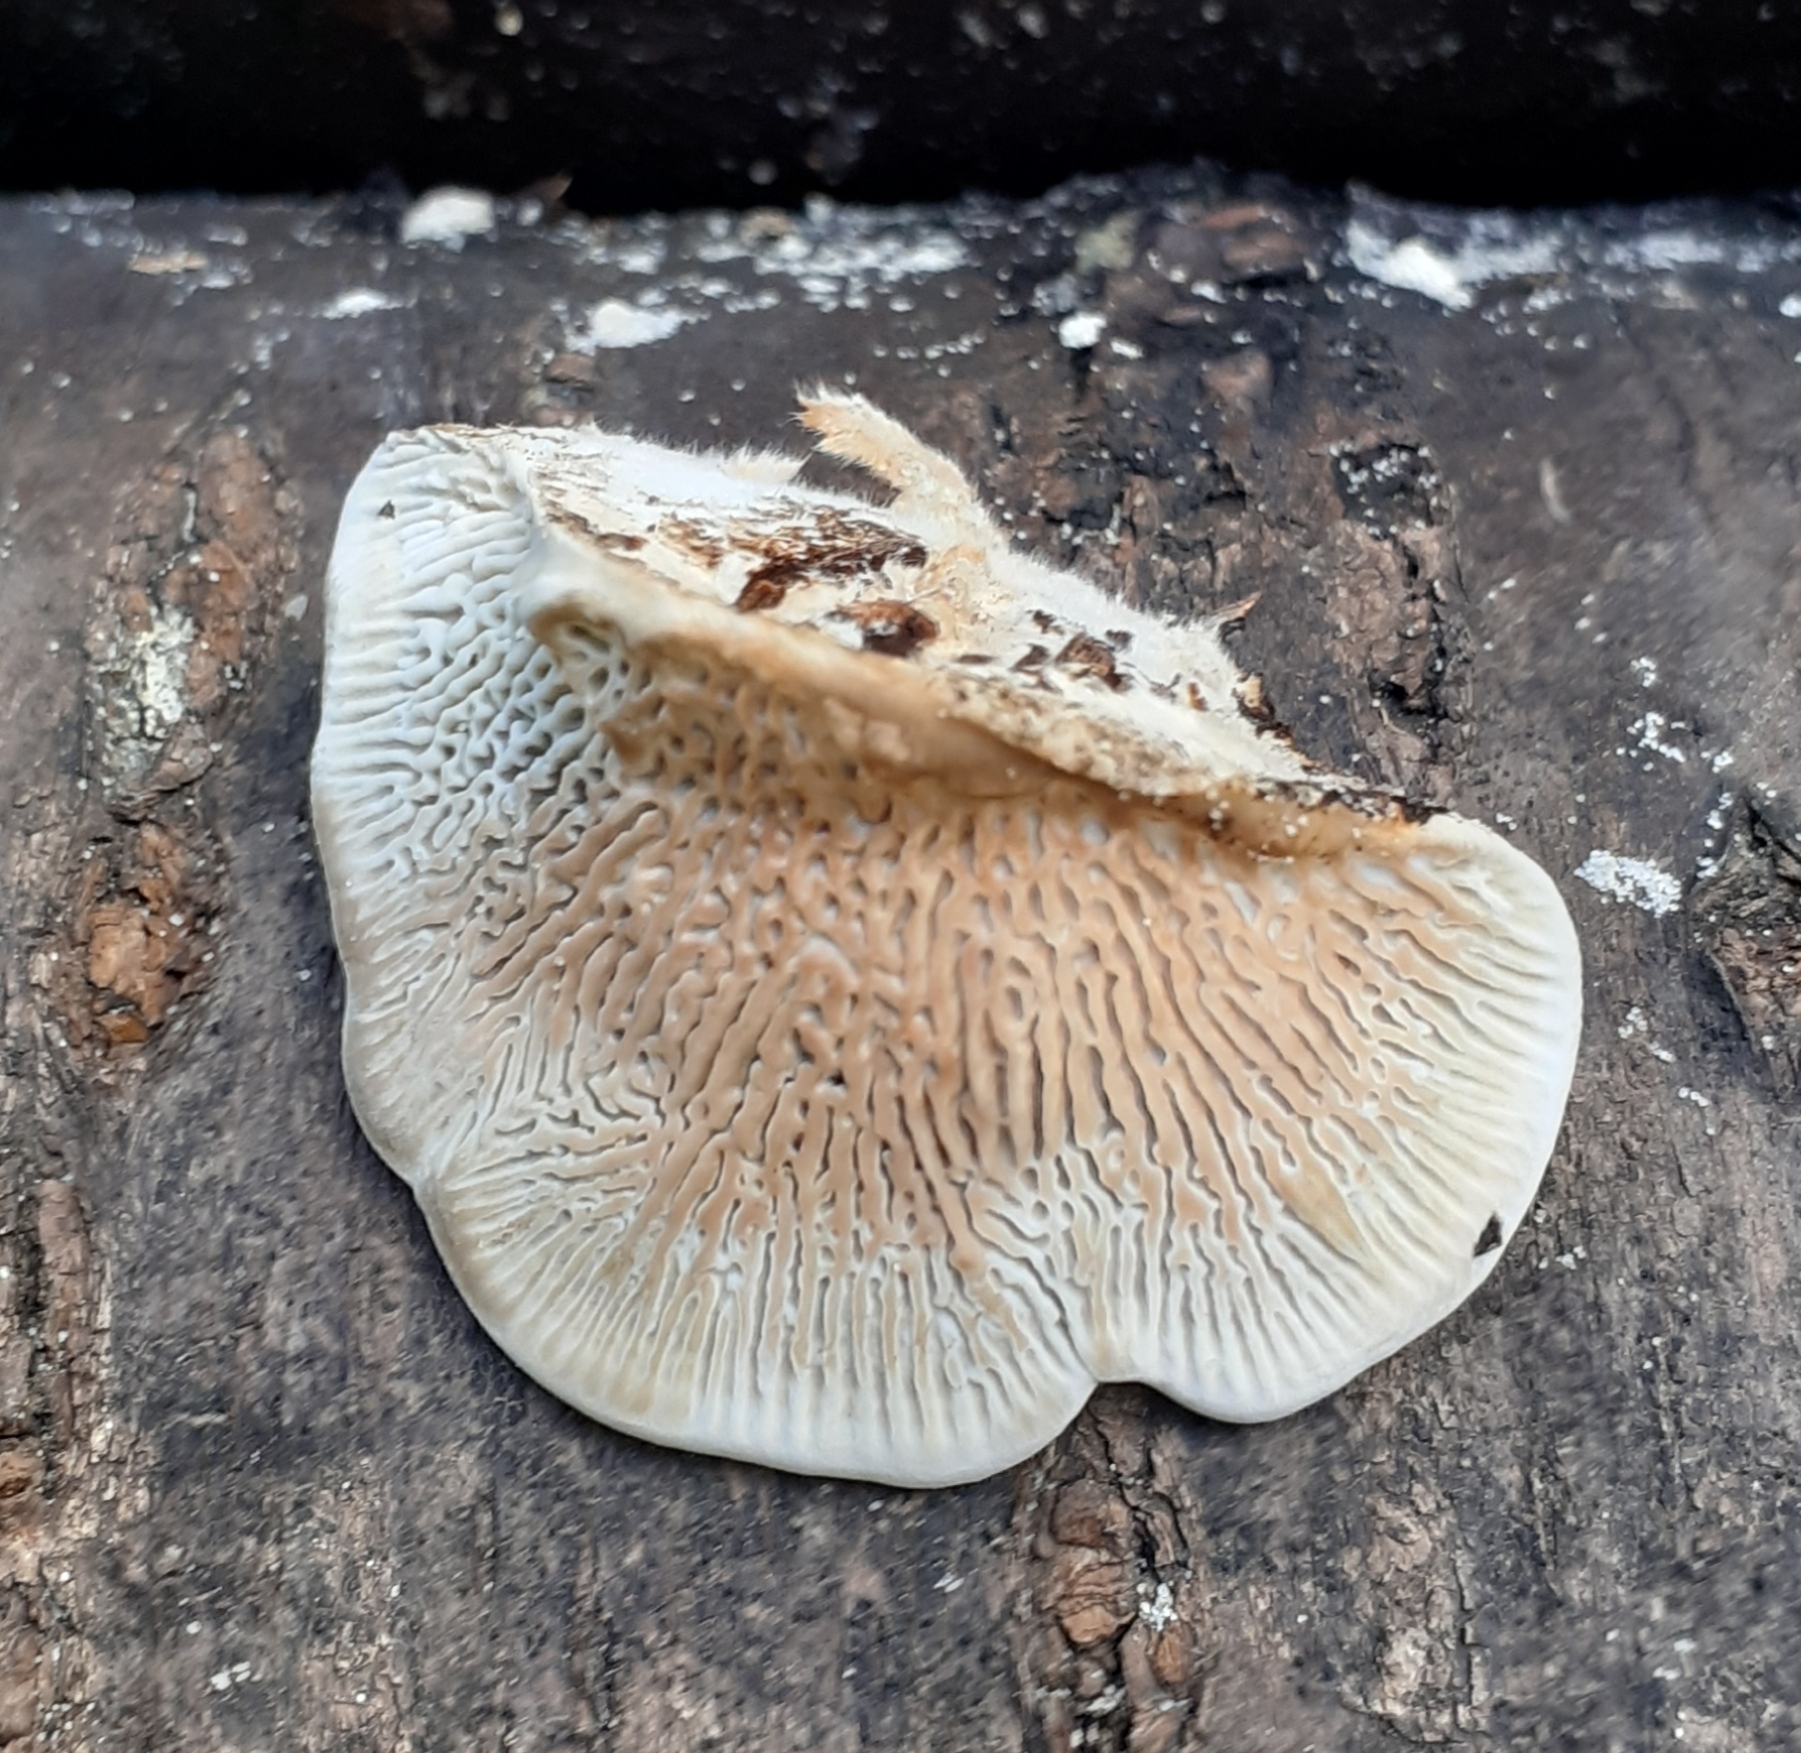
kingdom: Fungi
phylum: Basidiomycota
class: Agaricomycetes
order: Polyporales
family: Polyporaceae
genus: Daedaleopsis
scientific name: Daedaleopsis confragosa
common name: Blushing bracket
